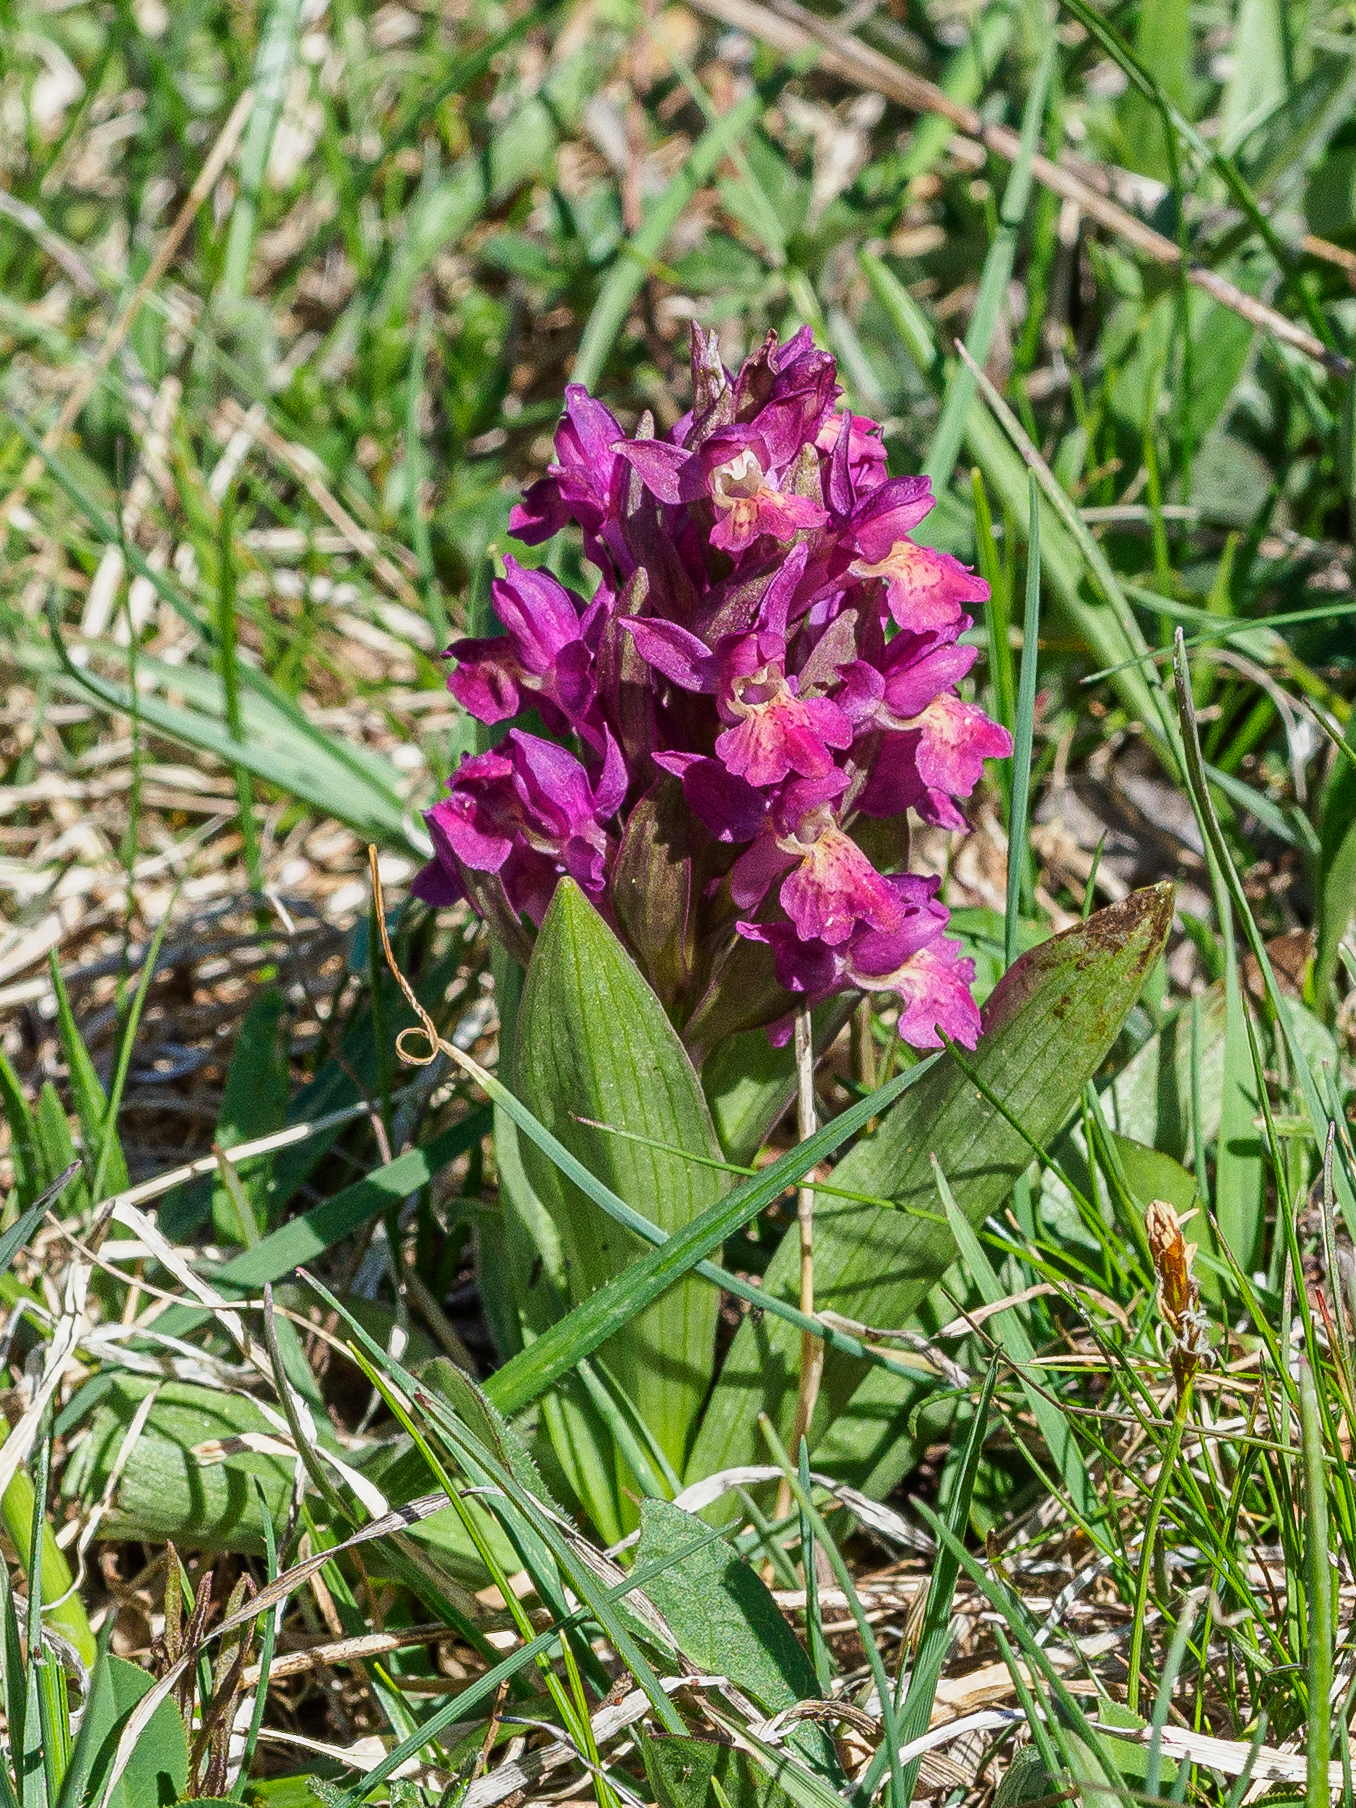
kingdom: Plantae
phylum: Tracheophyta
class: Liliopsida
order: Asparagales
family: Orchidaceae
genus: Dactylorhiza
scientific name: Dactylorhiza sambucina
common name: Elder-flowered orchid
